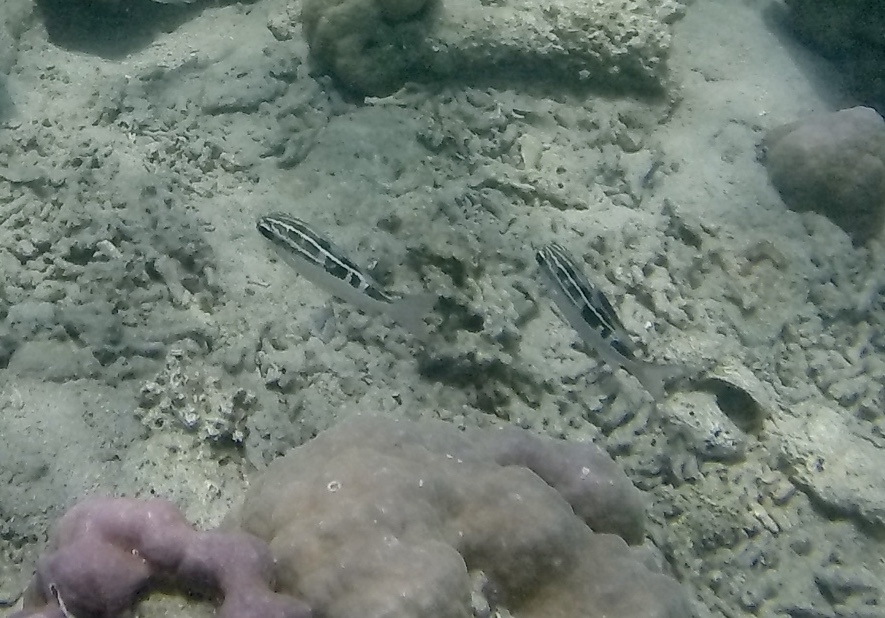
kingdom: Animalia
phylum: Chordata
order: Perciformes
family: Nemipteridae
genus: Scolopsis
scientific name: Scolopsis lineata
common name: Striped monocle bream
